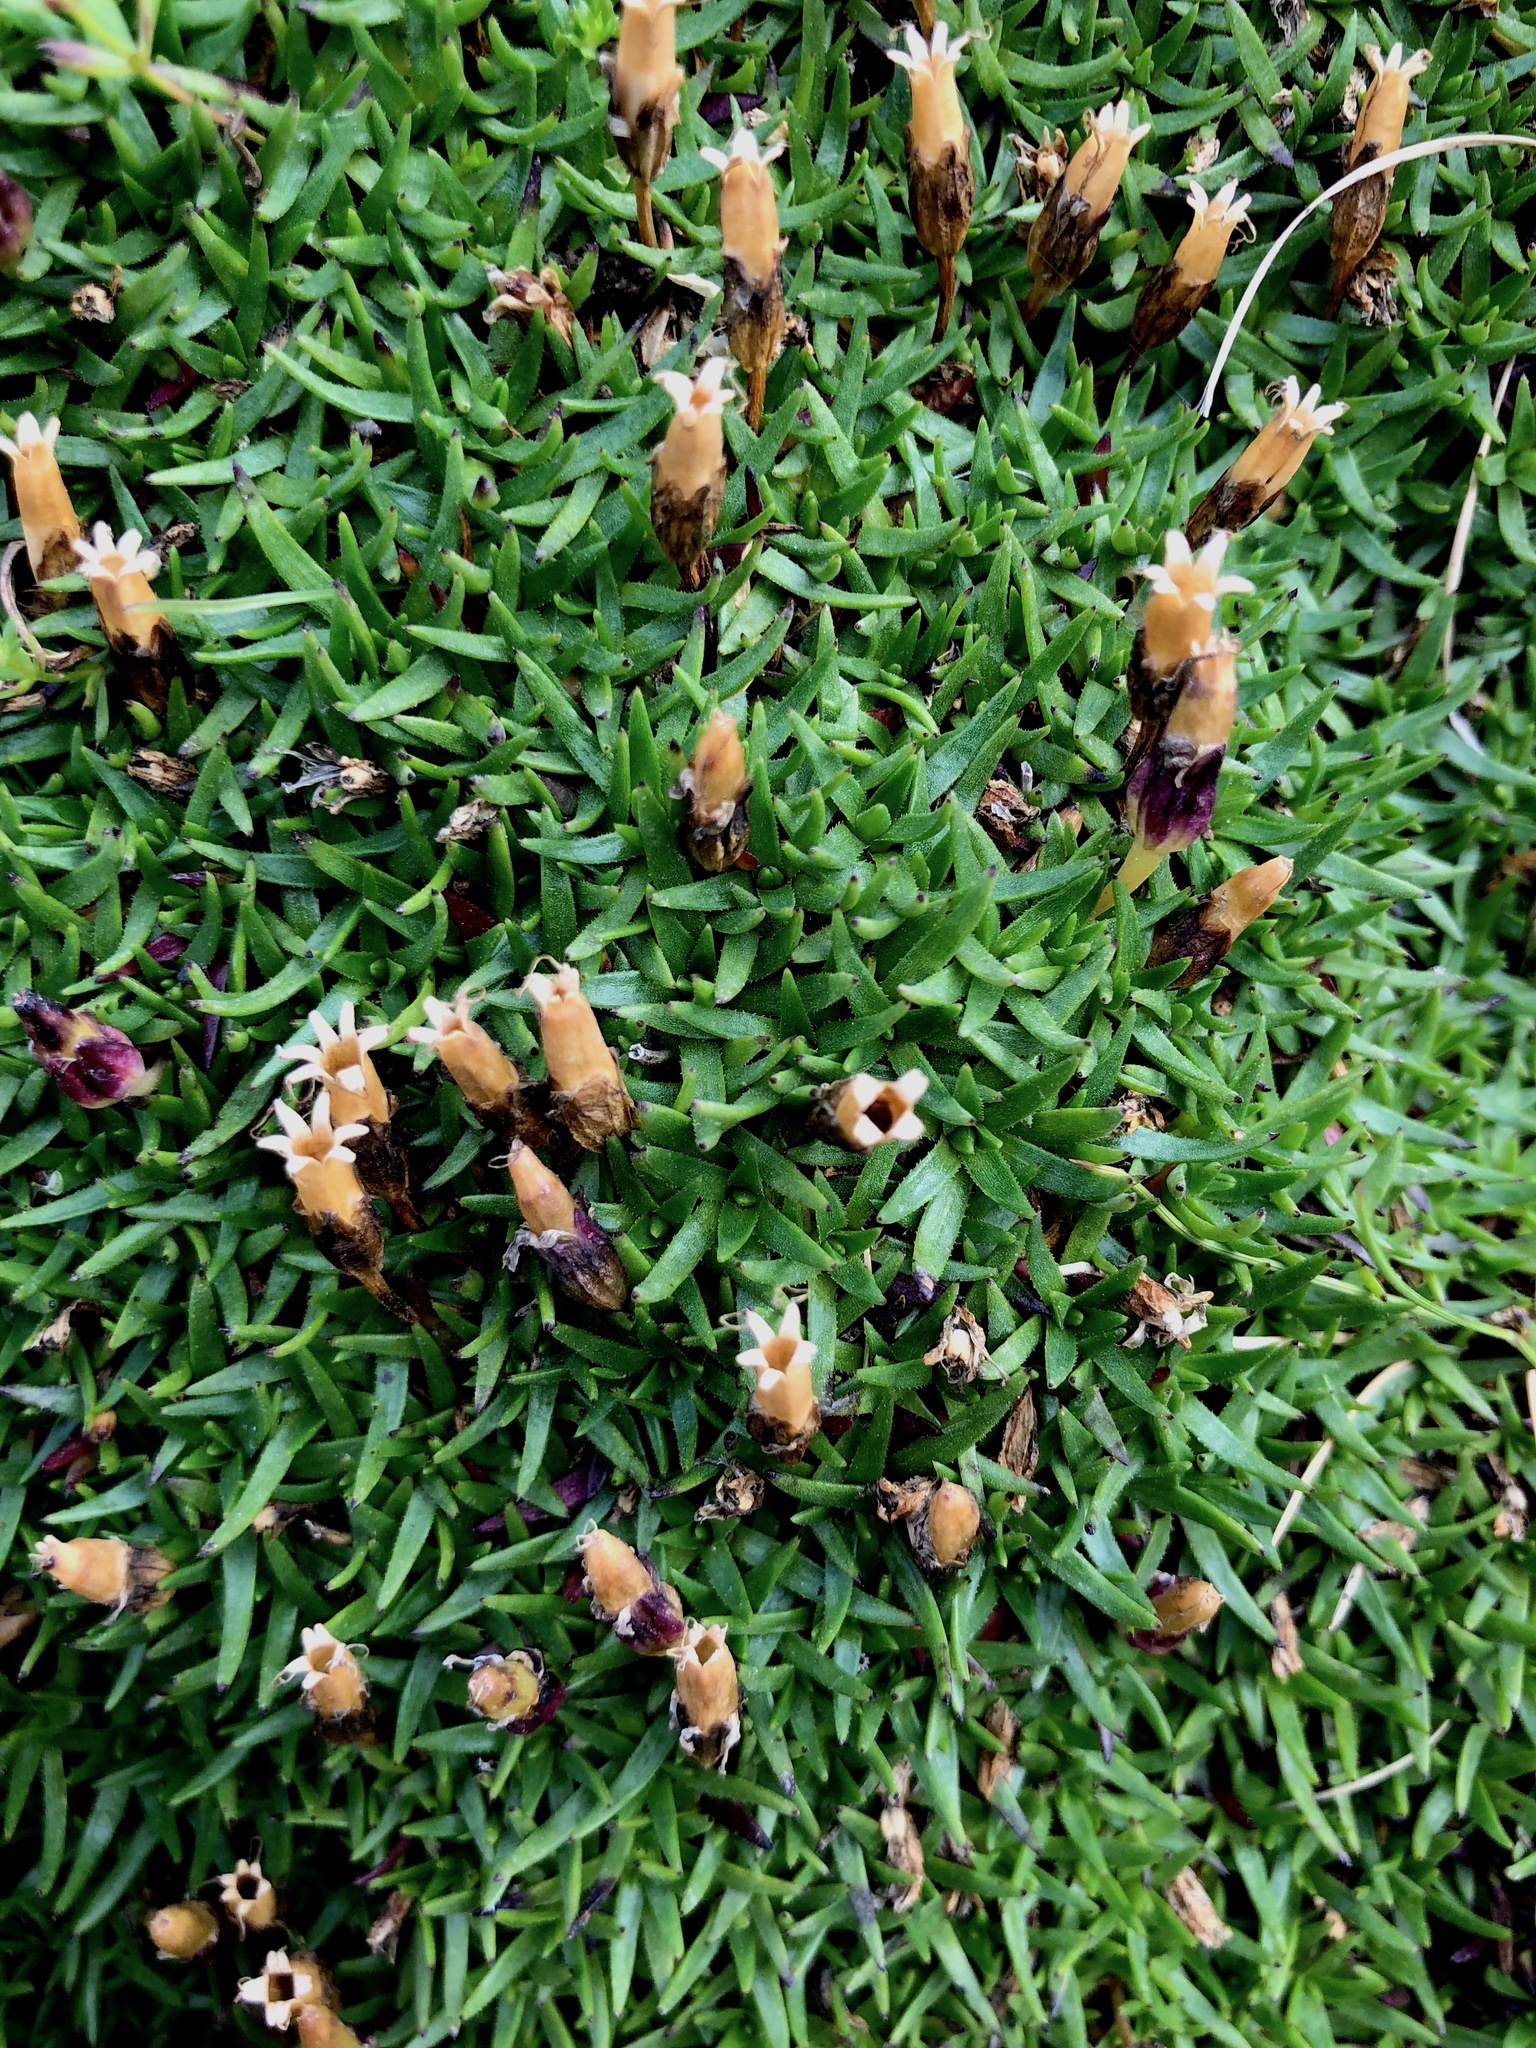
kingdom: Plantae
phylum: Tracheophyta
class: Magnoliopsida
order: Caryophyllales
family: Caryophyllaceae
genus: Silene
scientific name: Silene acaulis
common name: Moss campion
